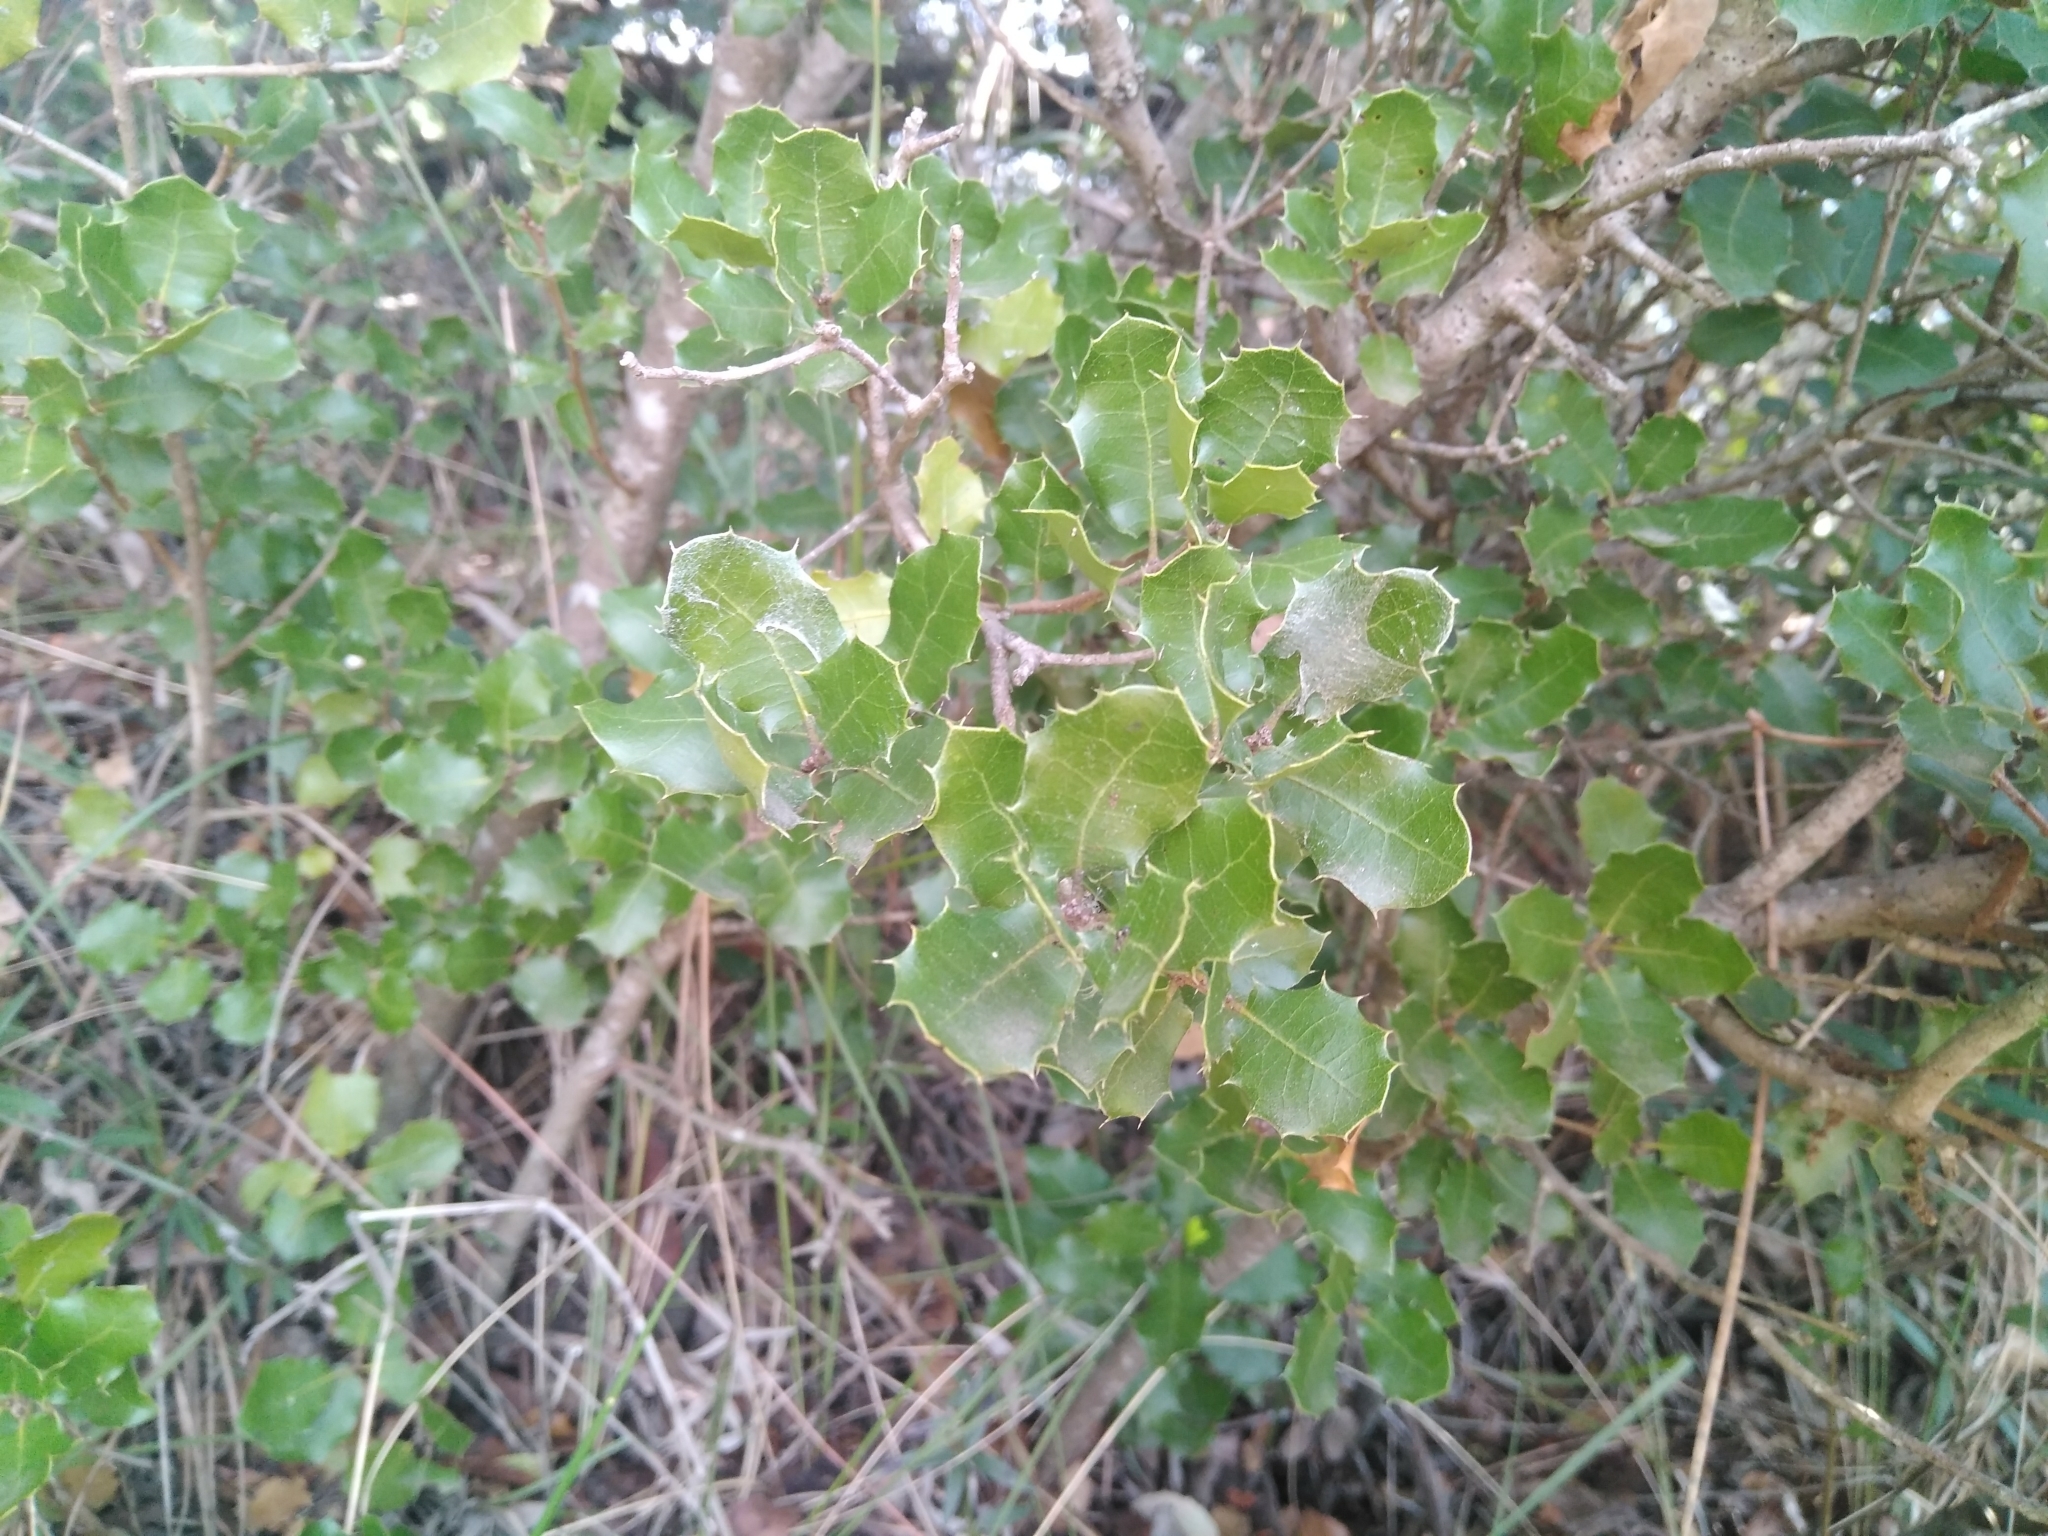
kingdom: Plantae
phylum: Tracheophyta
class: Magnoliopsida
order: Fagales
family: Fagaceae
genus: Quercus
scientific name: Quercus coccifera
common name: Kermes oak
